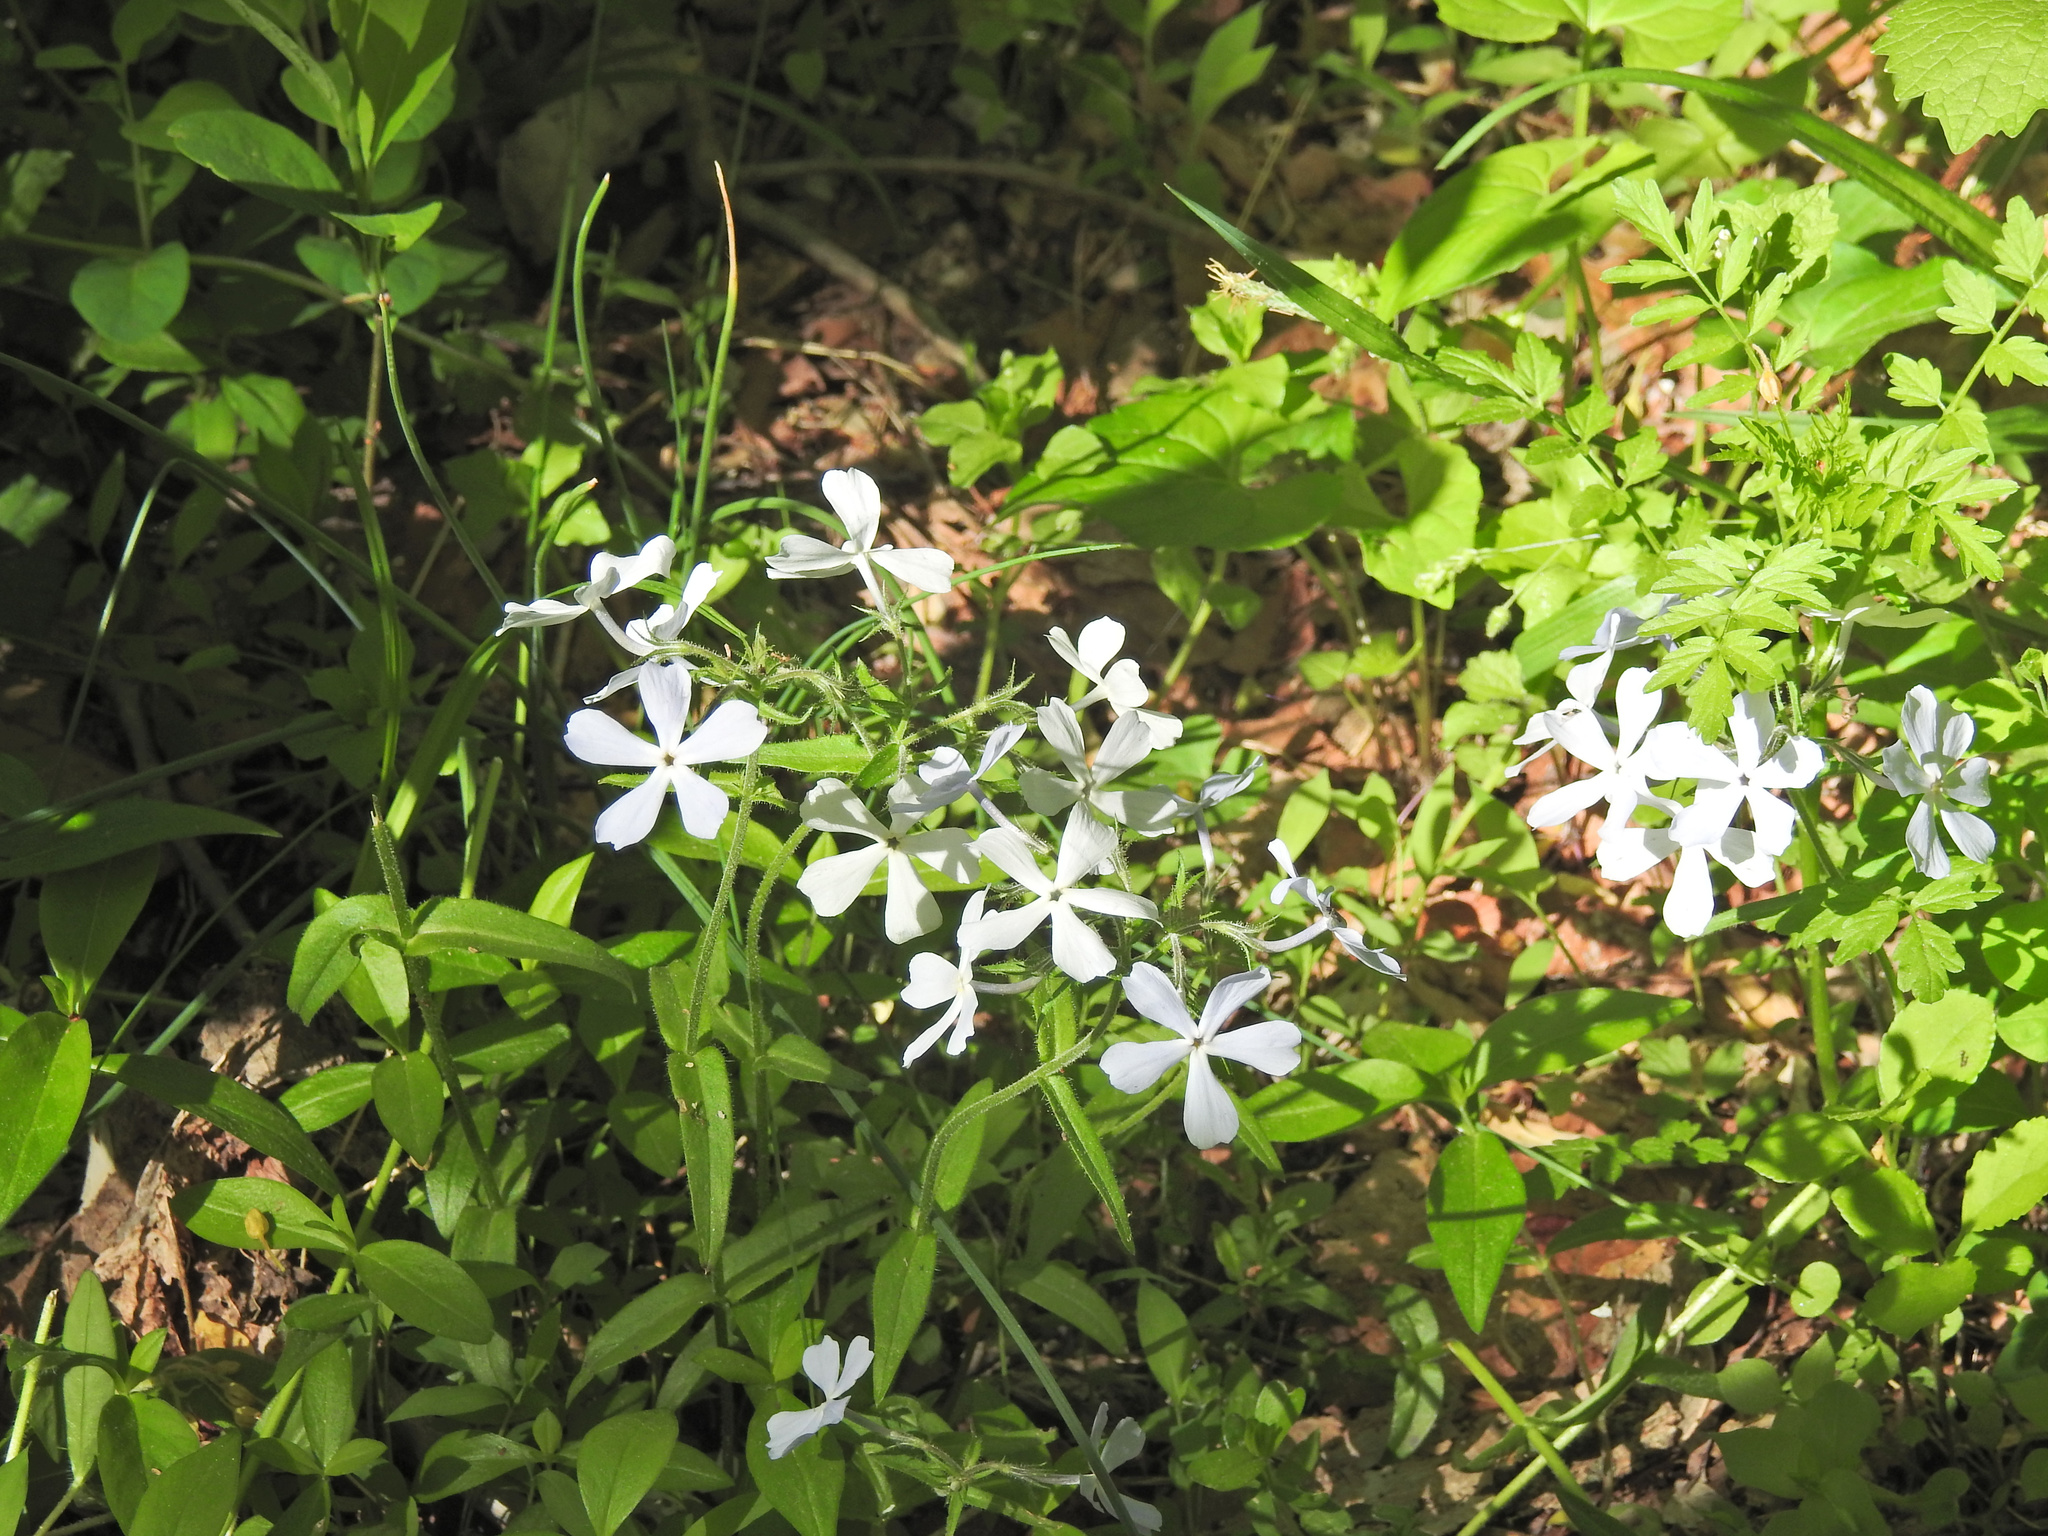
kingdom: Plantae
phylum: Tracheophyta
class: Magnoliopsida
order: Ericales
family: Polemoniaceae
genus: Phlox
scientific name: Phlox divaricata
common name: Blue phlox
